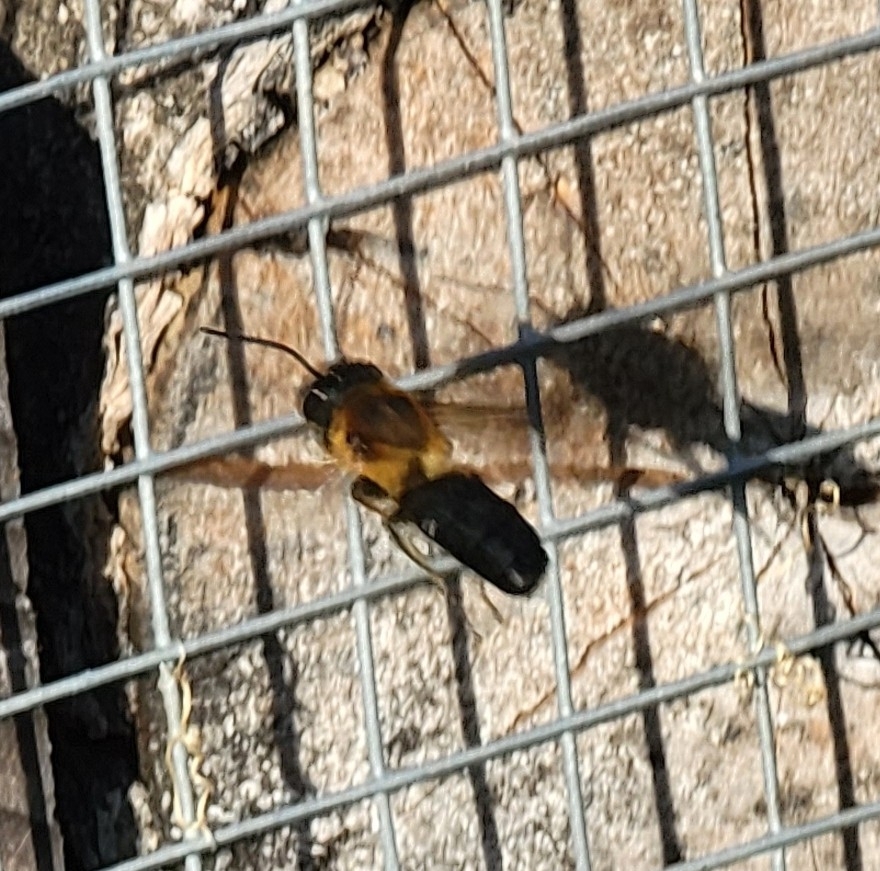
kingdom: Animalia
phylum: Arthropoda
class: Insecta
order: Hymenoptera
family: Megachilidae
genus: Megachile
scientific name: Megachile sculpturalis
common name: Sculptured resin bee
